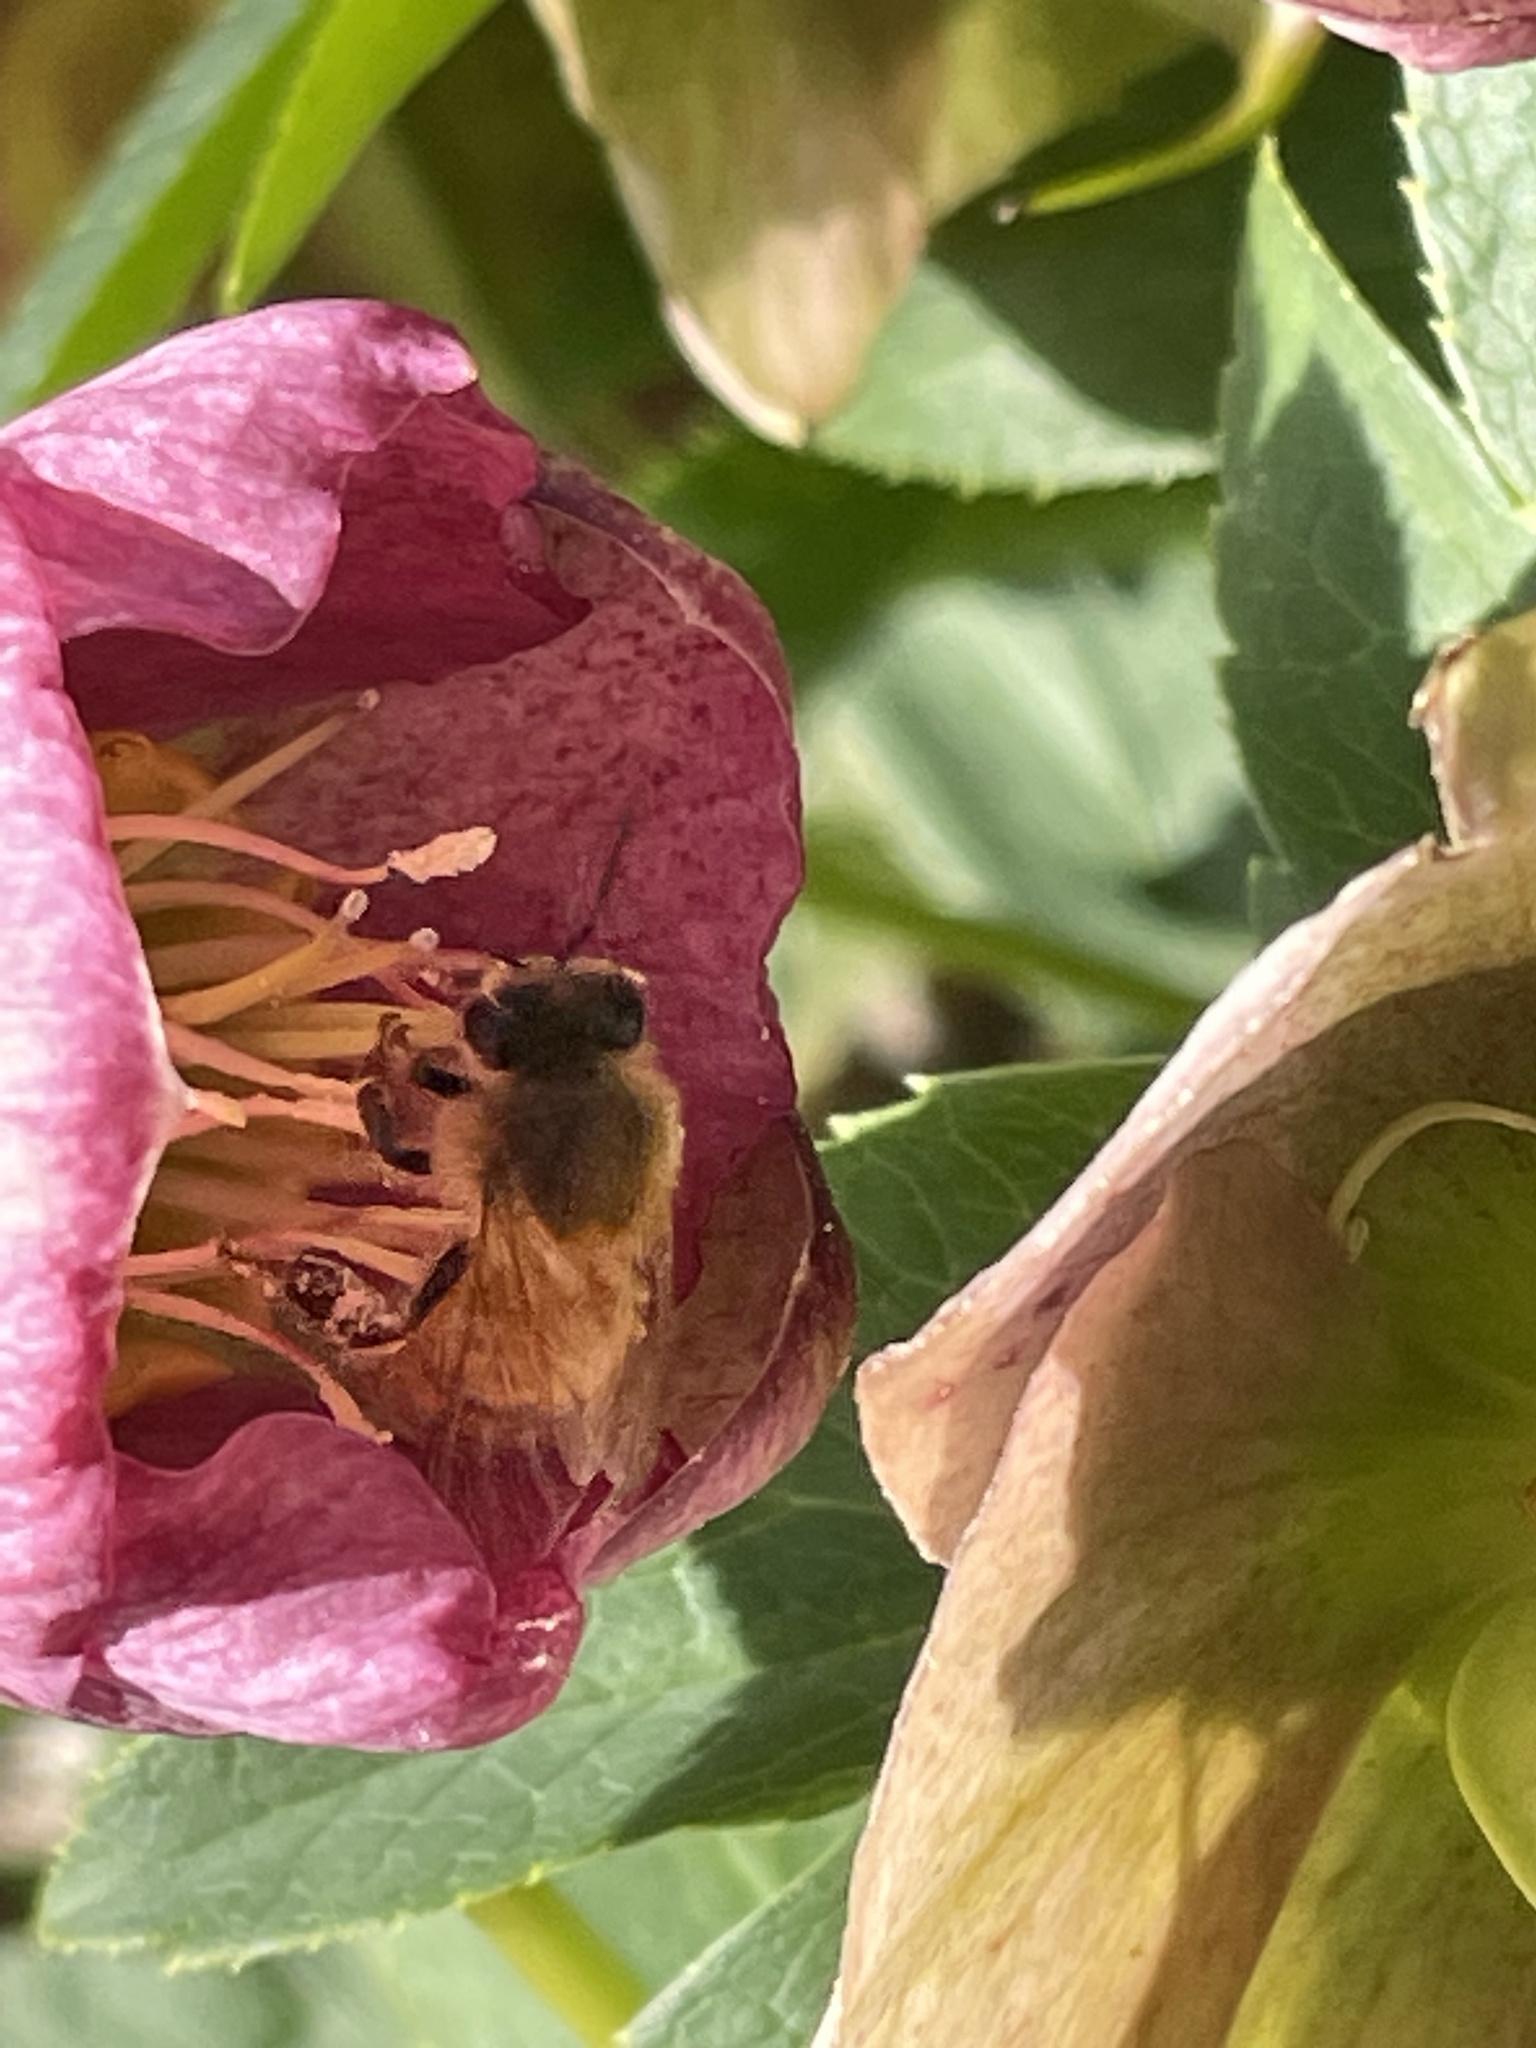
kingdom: Animalia
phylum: Arthropoda
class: Insecta
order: Hymenoptera
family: Apidae
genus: Apis
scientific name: Apis mellifera
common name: Honey bee
